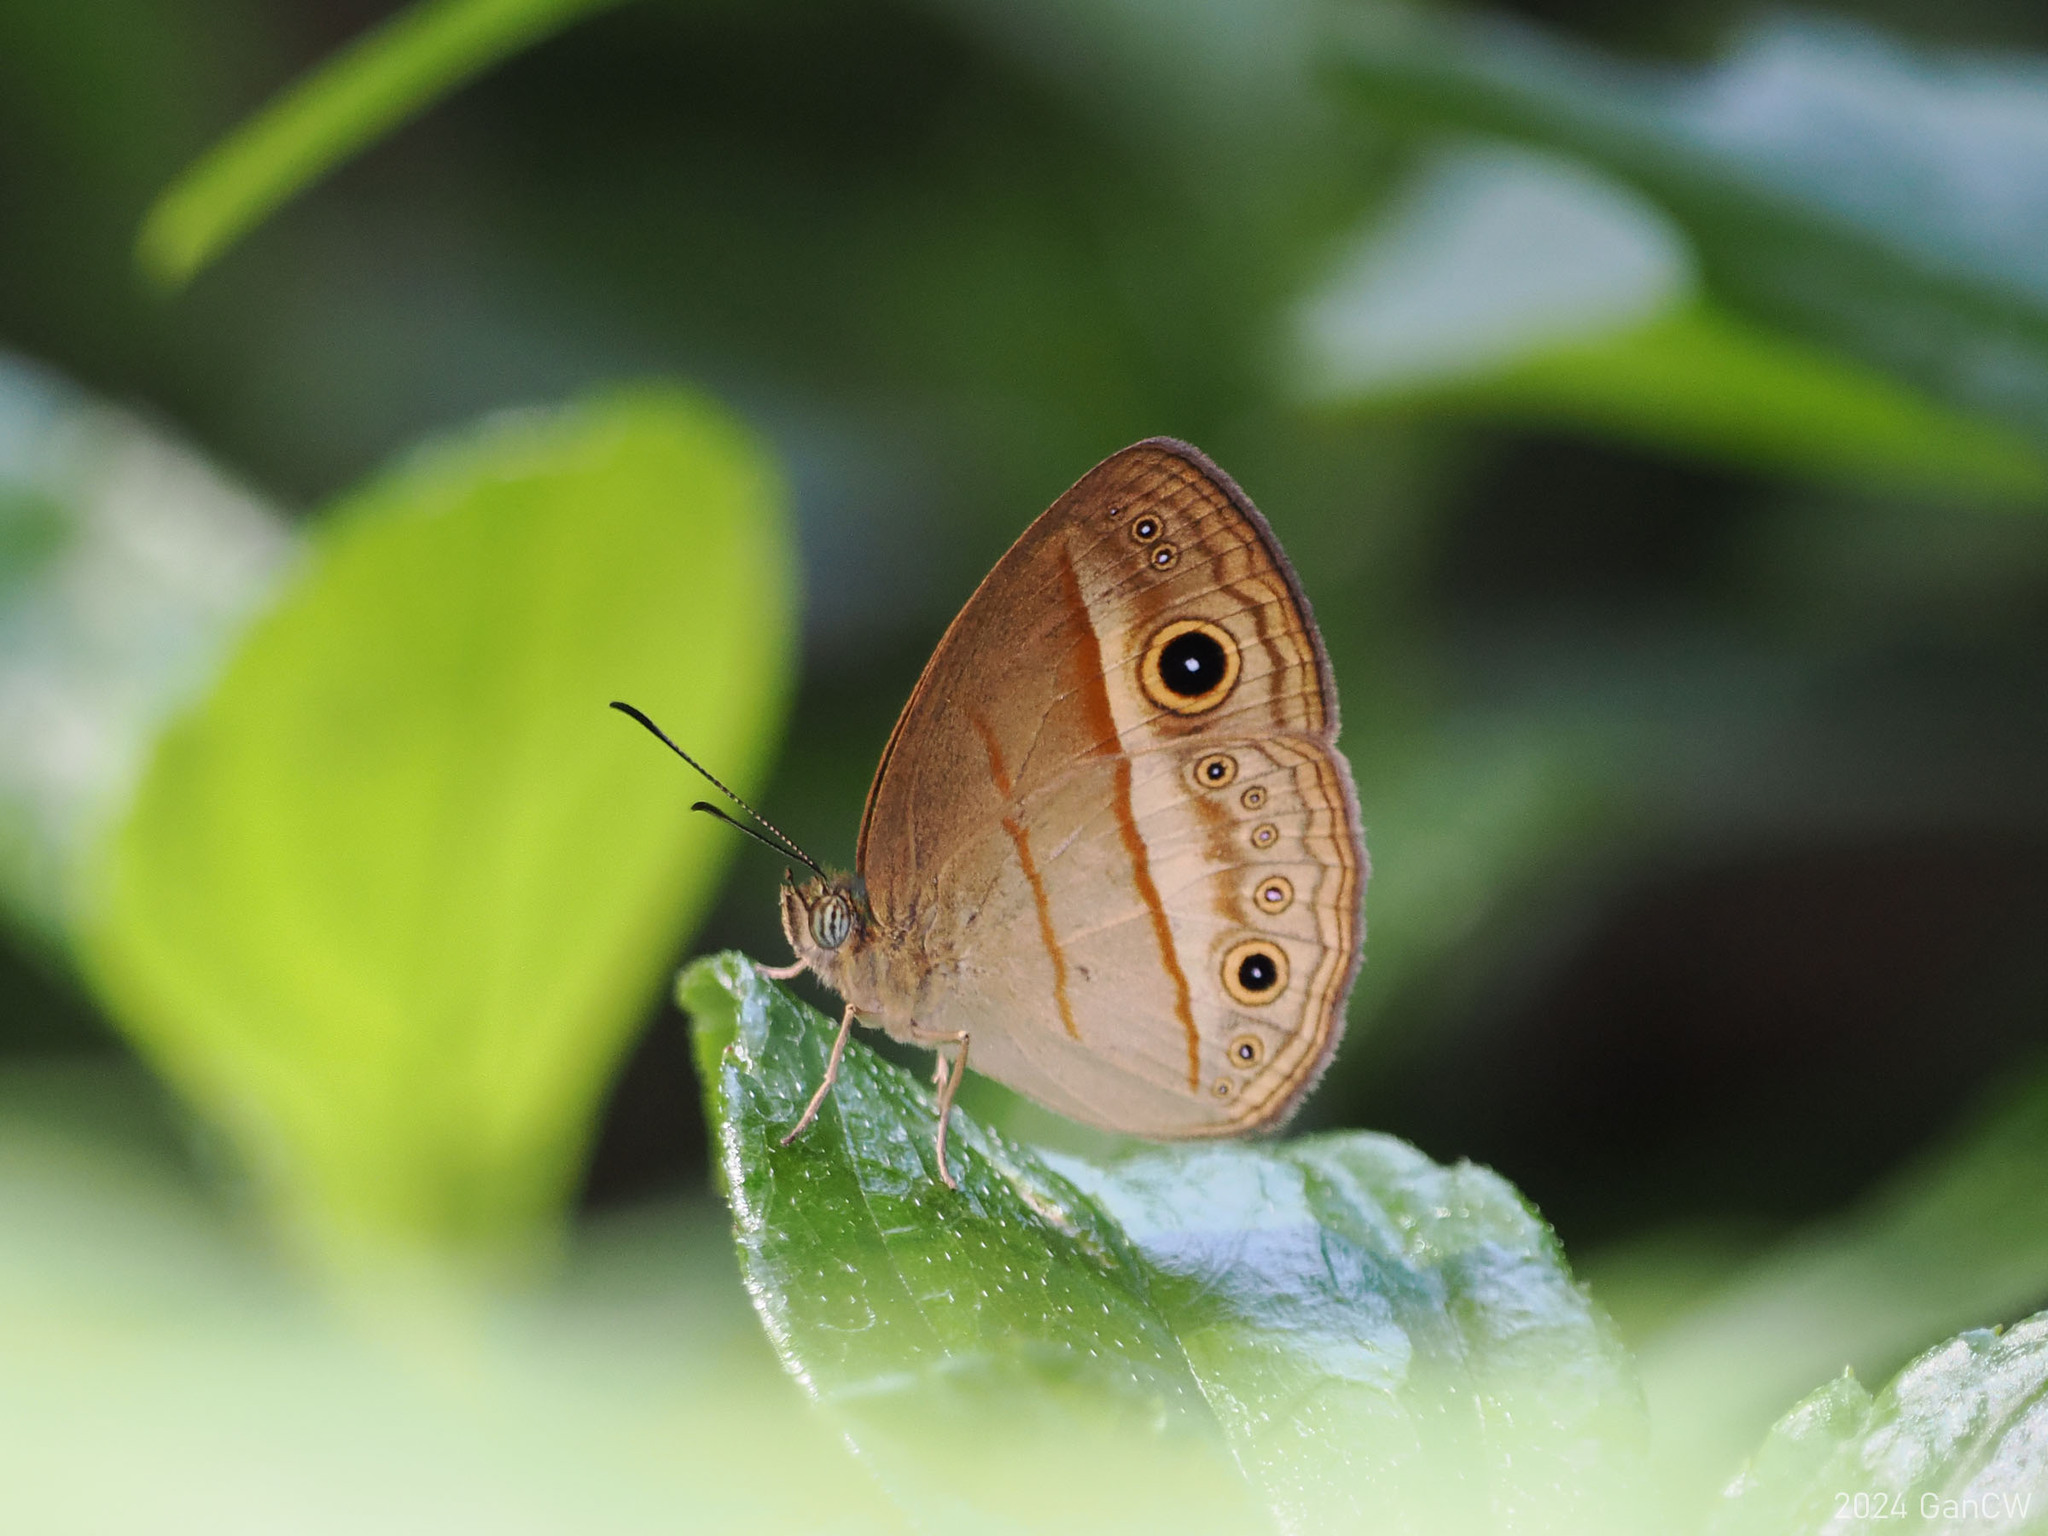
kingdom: Animalia
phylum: Arthropoda
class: Insecta
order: Lepidoptera
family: Nymphalidae
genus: Mycalesis
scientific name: Mycalesis ita
